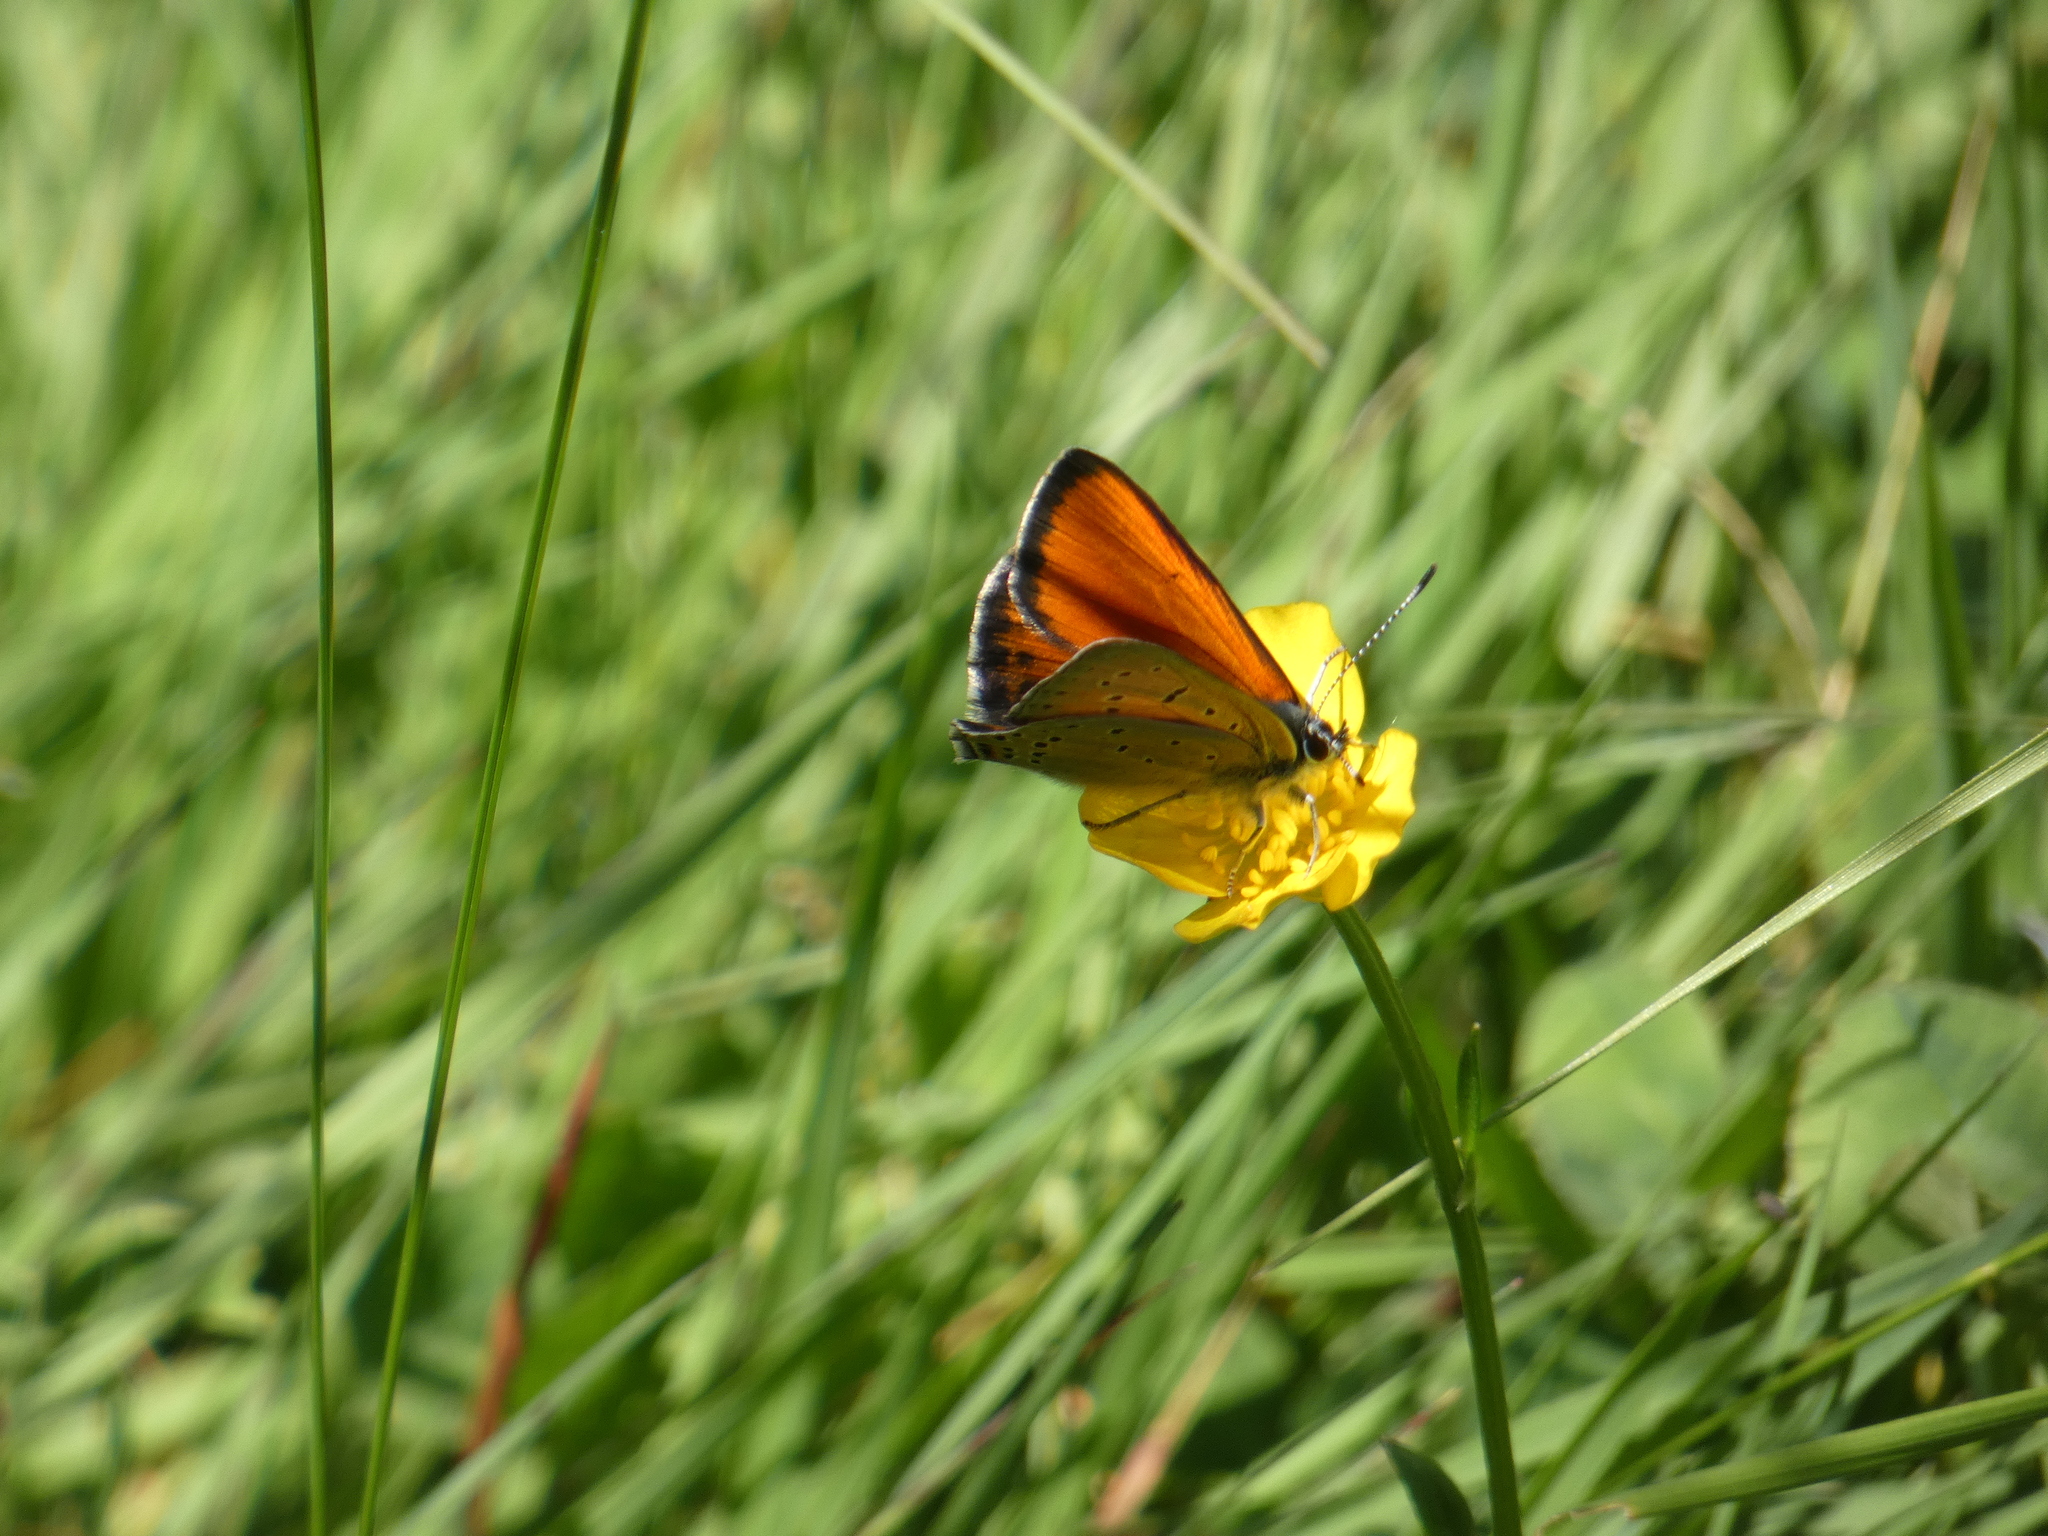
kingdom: Animalia
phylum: Arthropoda
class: Insecta
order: Lepidoptera
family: Lycaenidae
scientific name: Lycaenidae
